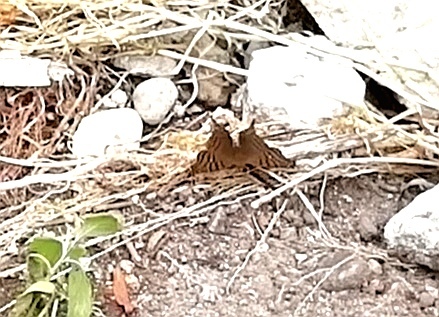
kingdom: Animalia
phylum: Arthropoda
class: Insecta
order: Lepidoptera
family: Nymphalidae
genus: Hypanartia
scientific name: Hypanartia dione
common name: Banded mapwing
